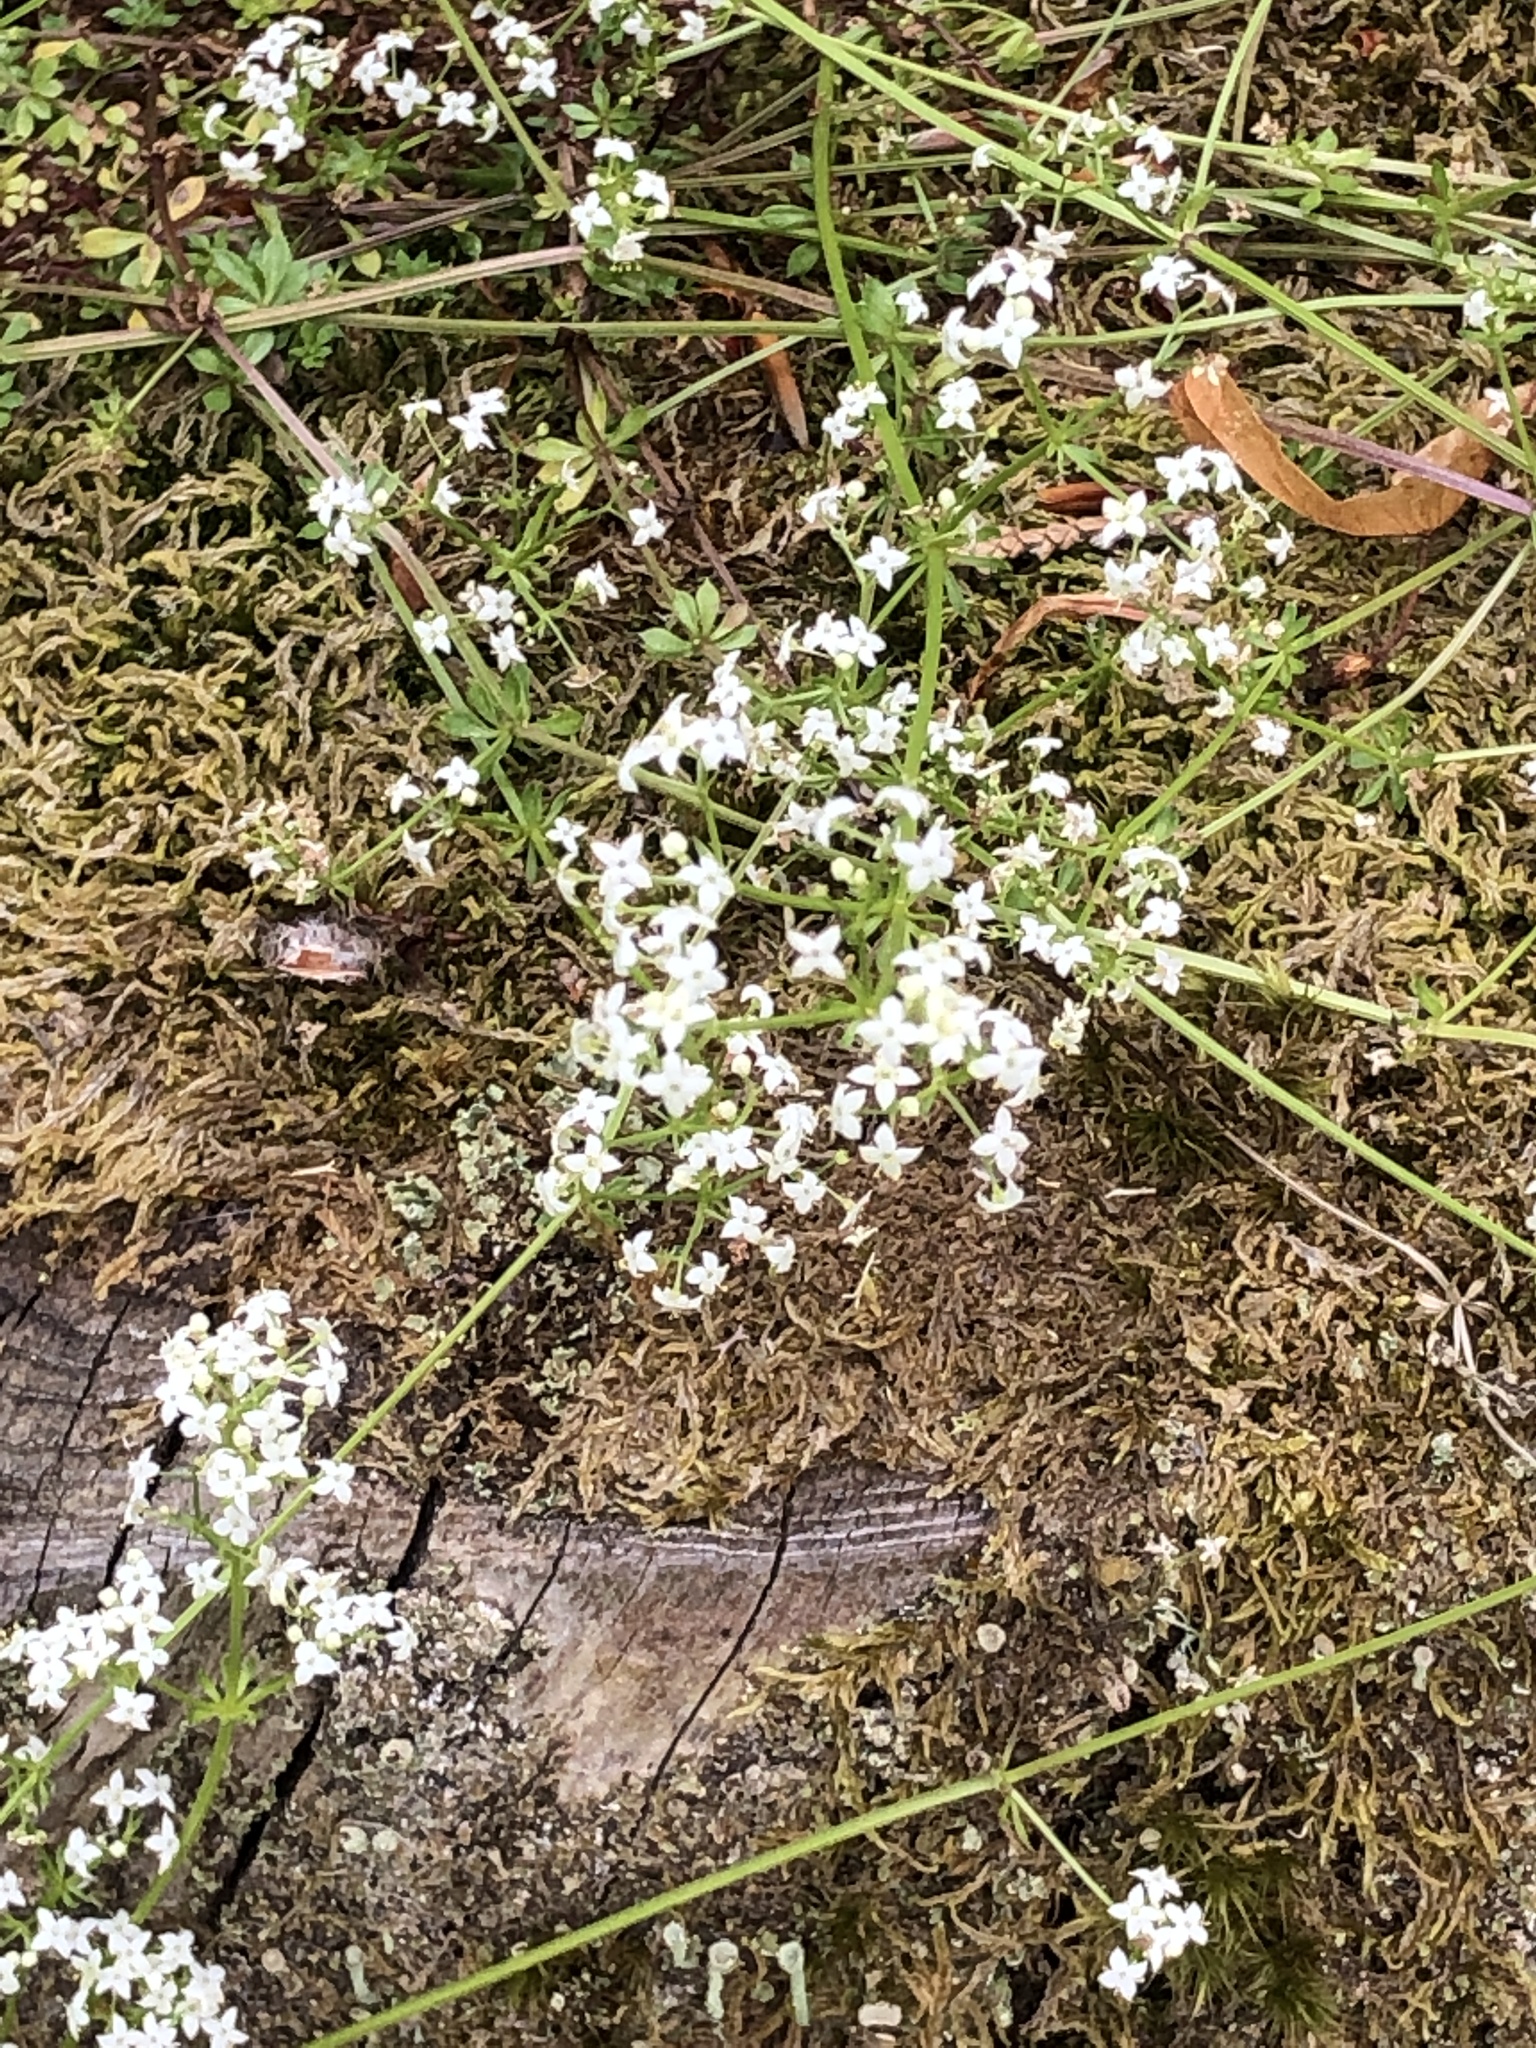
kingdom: Plantae
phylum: Tracheophyta
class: Magnoliopsida
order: Gentianales
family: Rubiaceae
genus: Galium
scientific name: Galium saxatile
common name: Heath bedstraw
